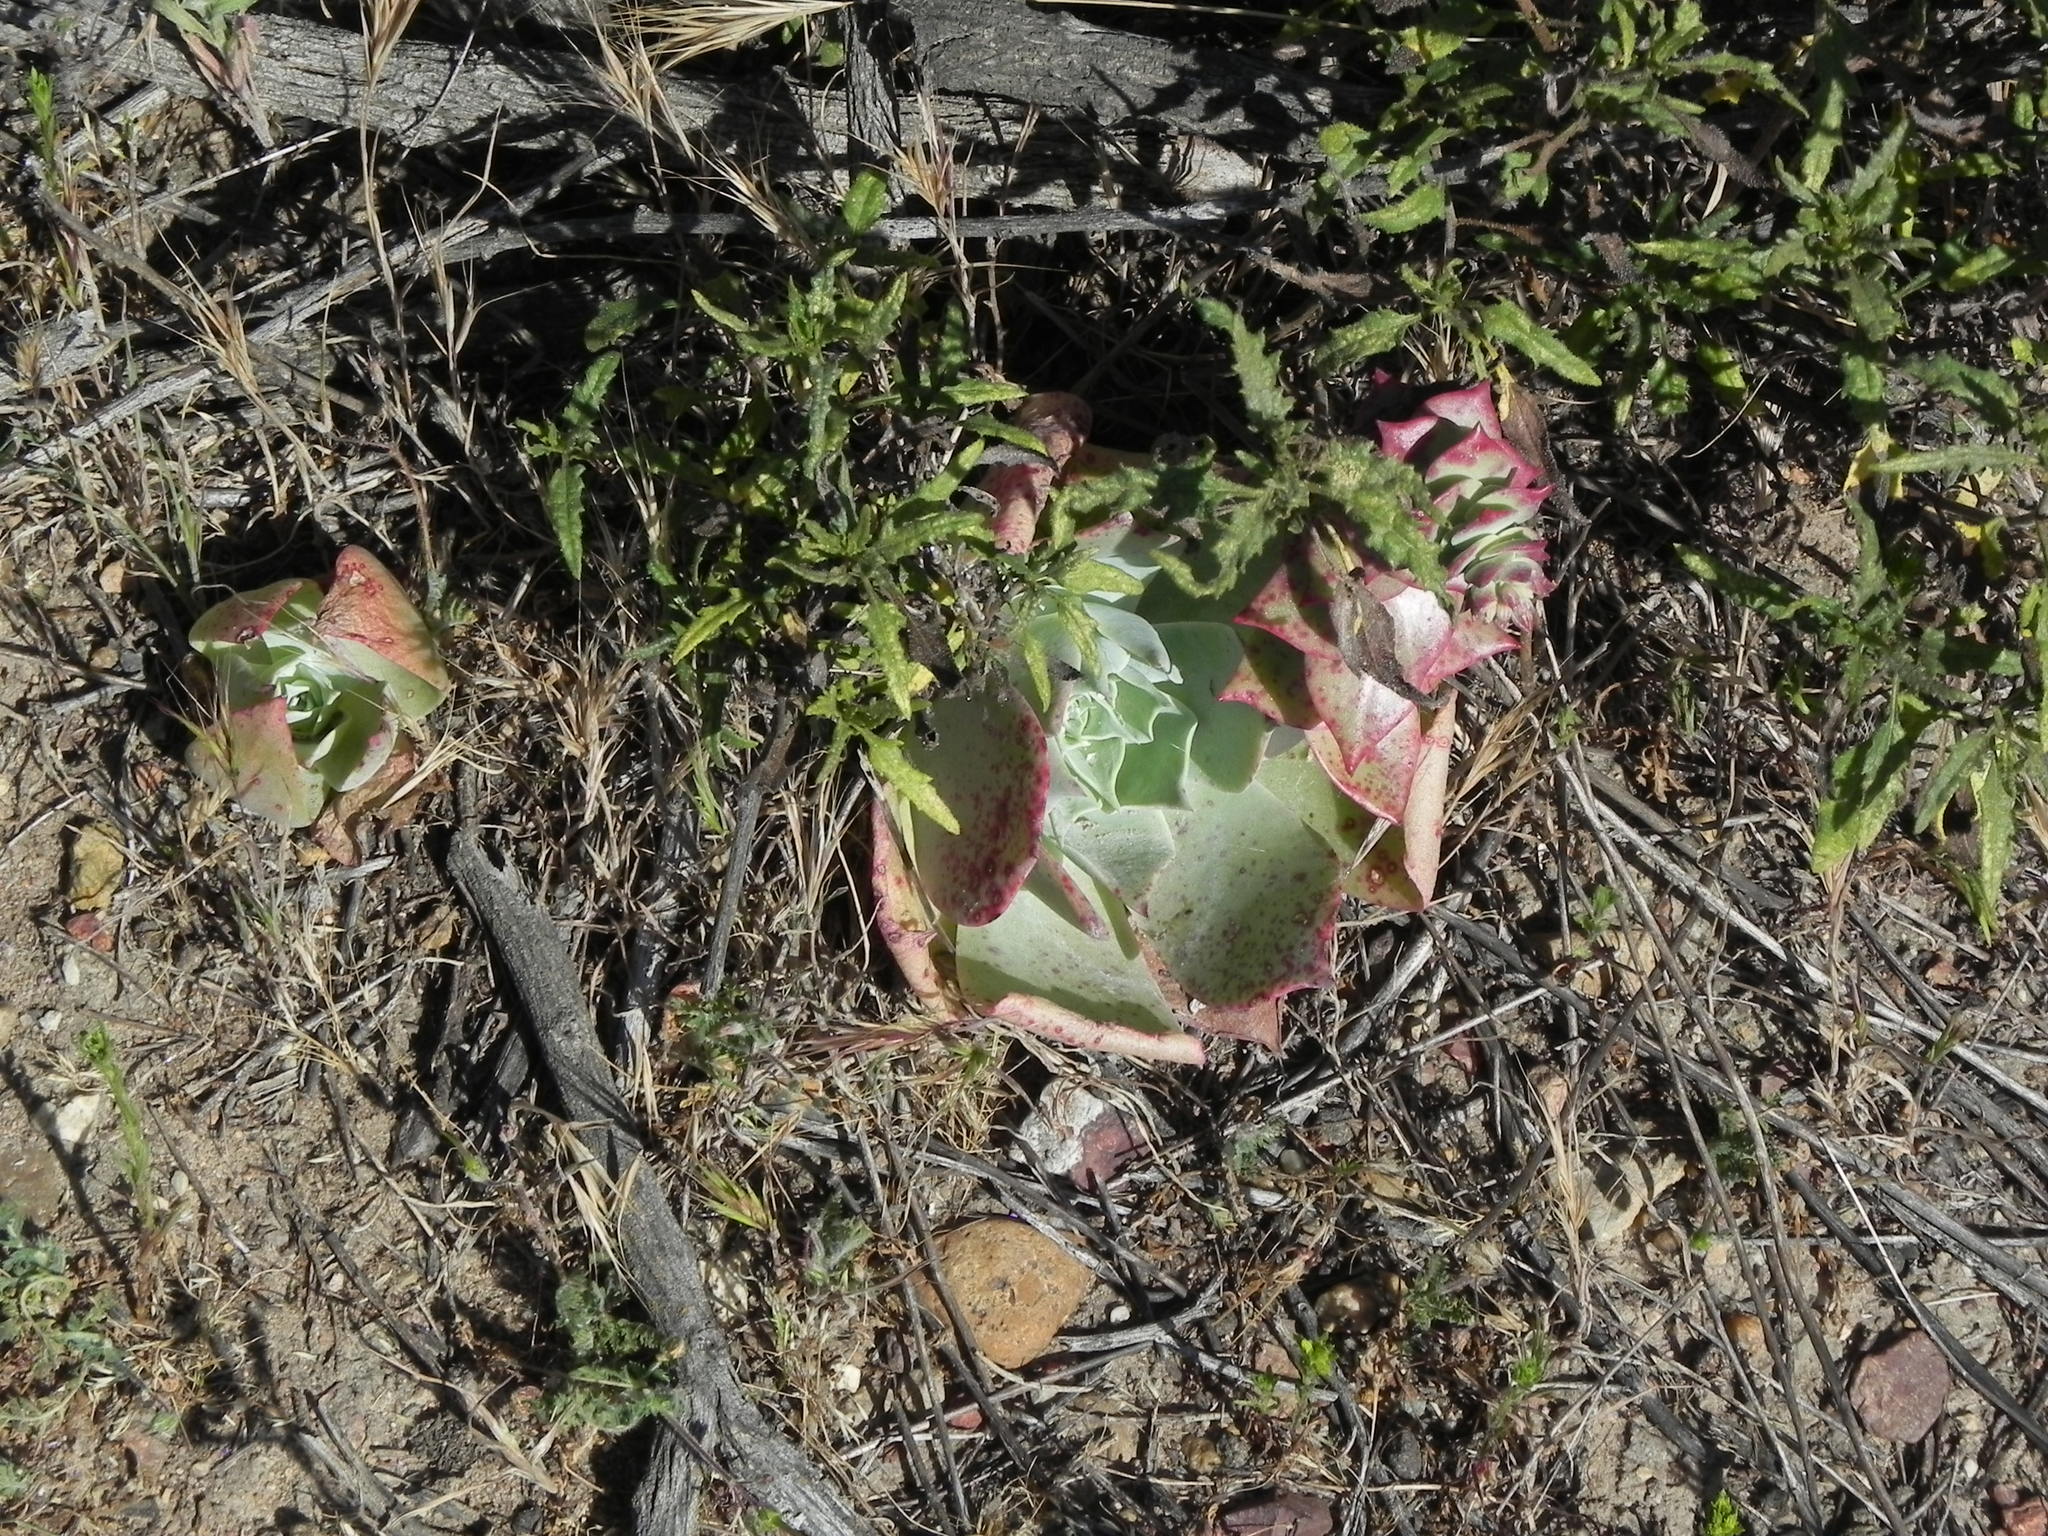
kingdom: Plantae
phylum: Tracheophyta
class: Magnoliopsida
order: Saxifragales
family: Crassulaceae
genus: Dudleya
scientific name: Dudleya pulverulenta
